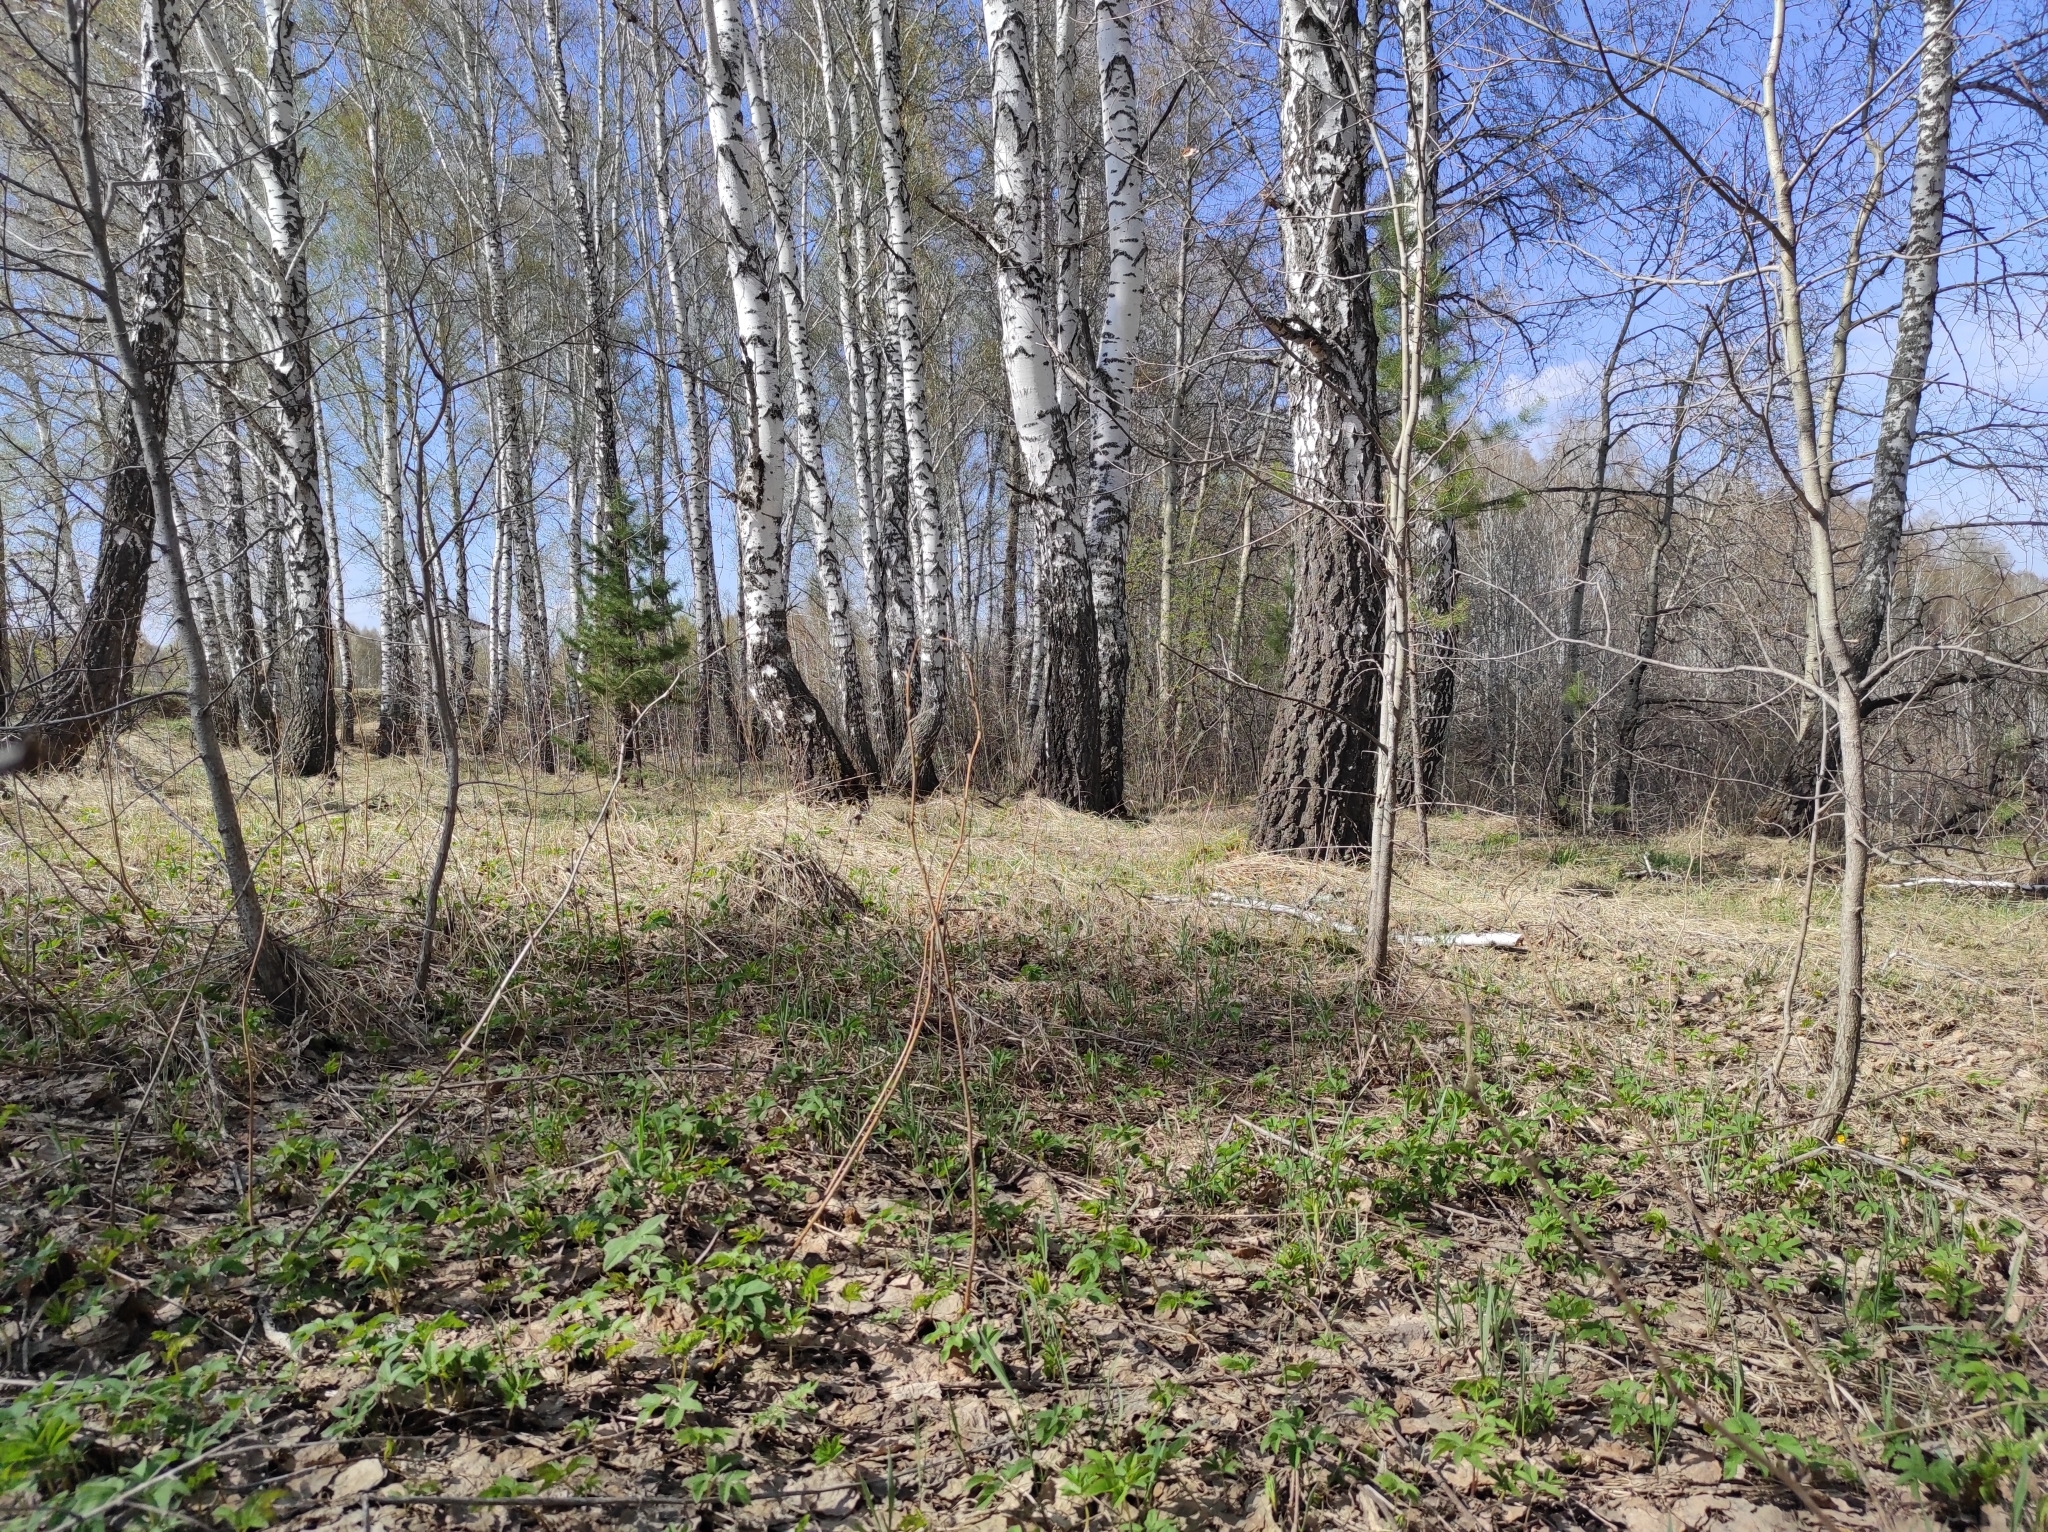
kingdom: Plantae
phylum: Tracheophyta
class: Pinopsida
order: Pinales
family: Pinaceae
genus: Pinus
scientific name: Pinus sylvestris
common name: Scots pine
